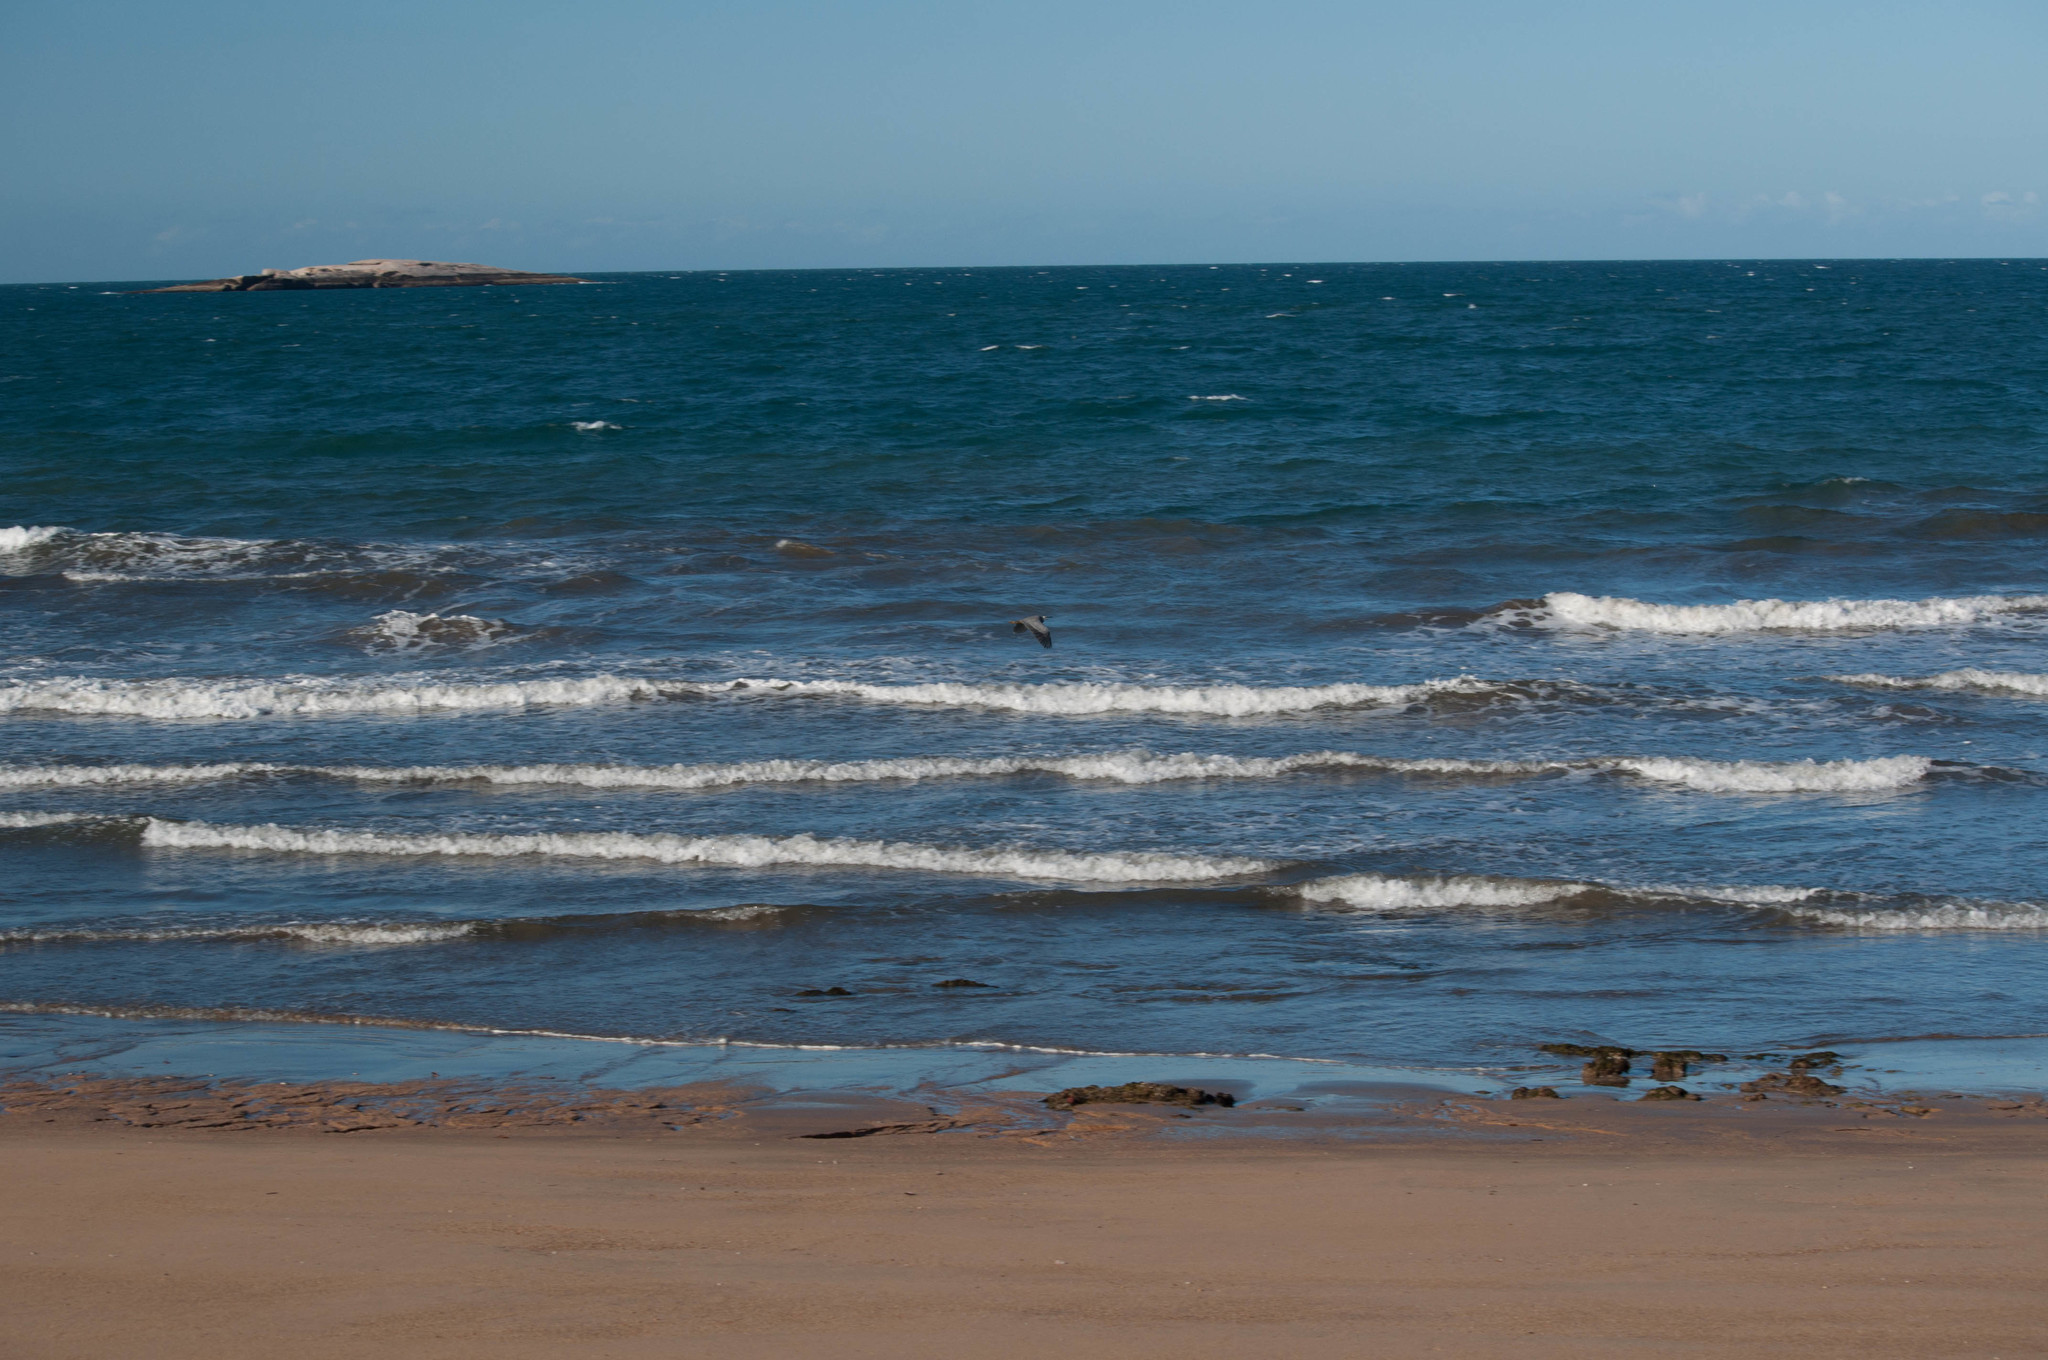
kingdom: Animalia
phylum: Chordata
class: Aves
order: Pelecaniformes
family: Ardeidae
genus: Egretta
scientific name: Egretta novaehollandiae
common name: White-faced heron
